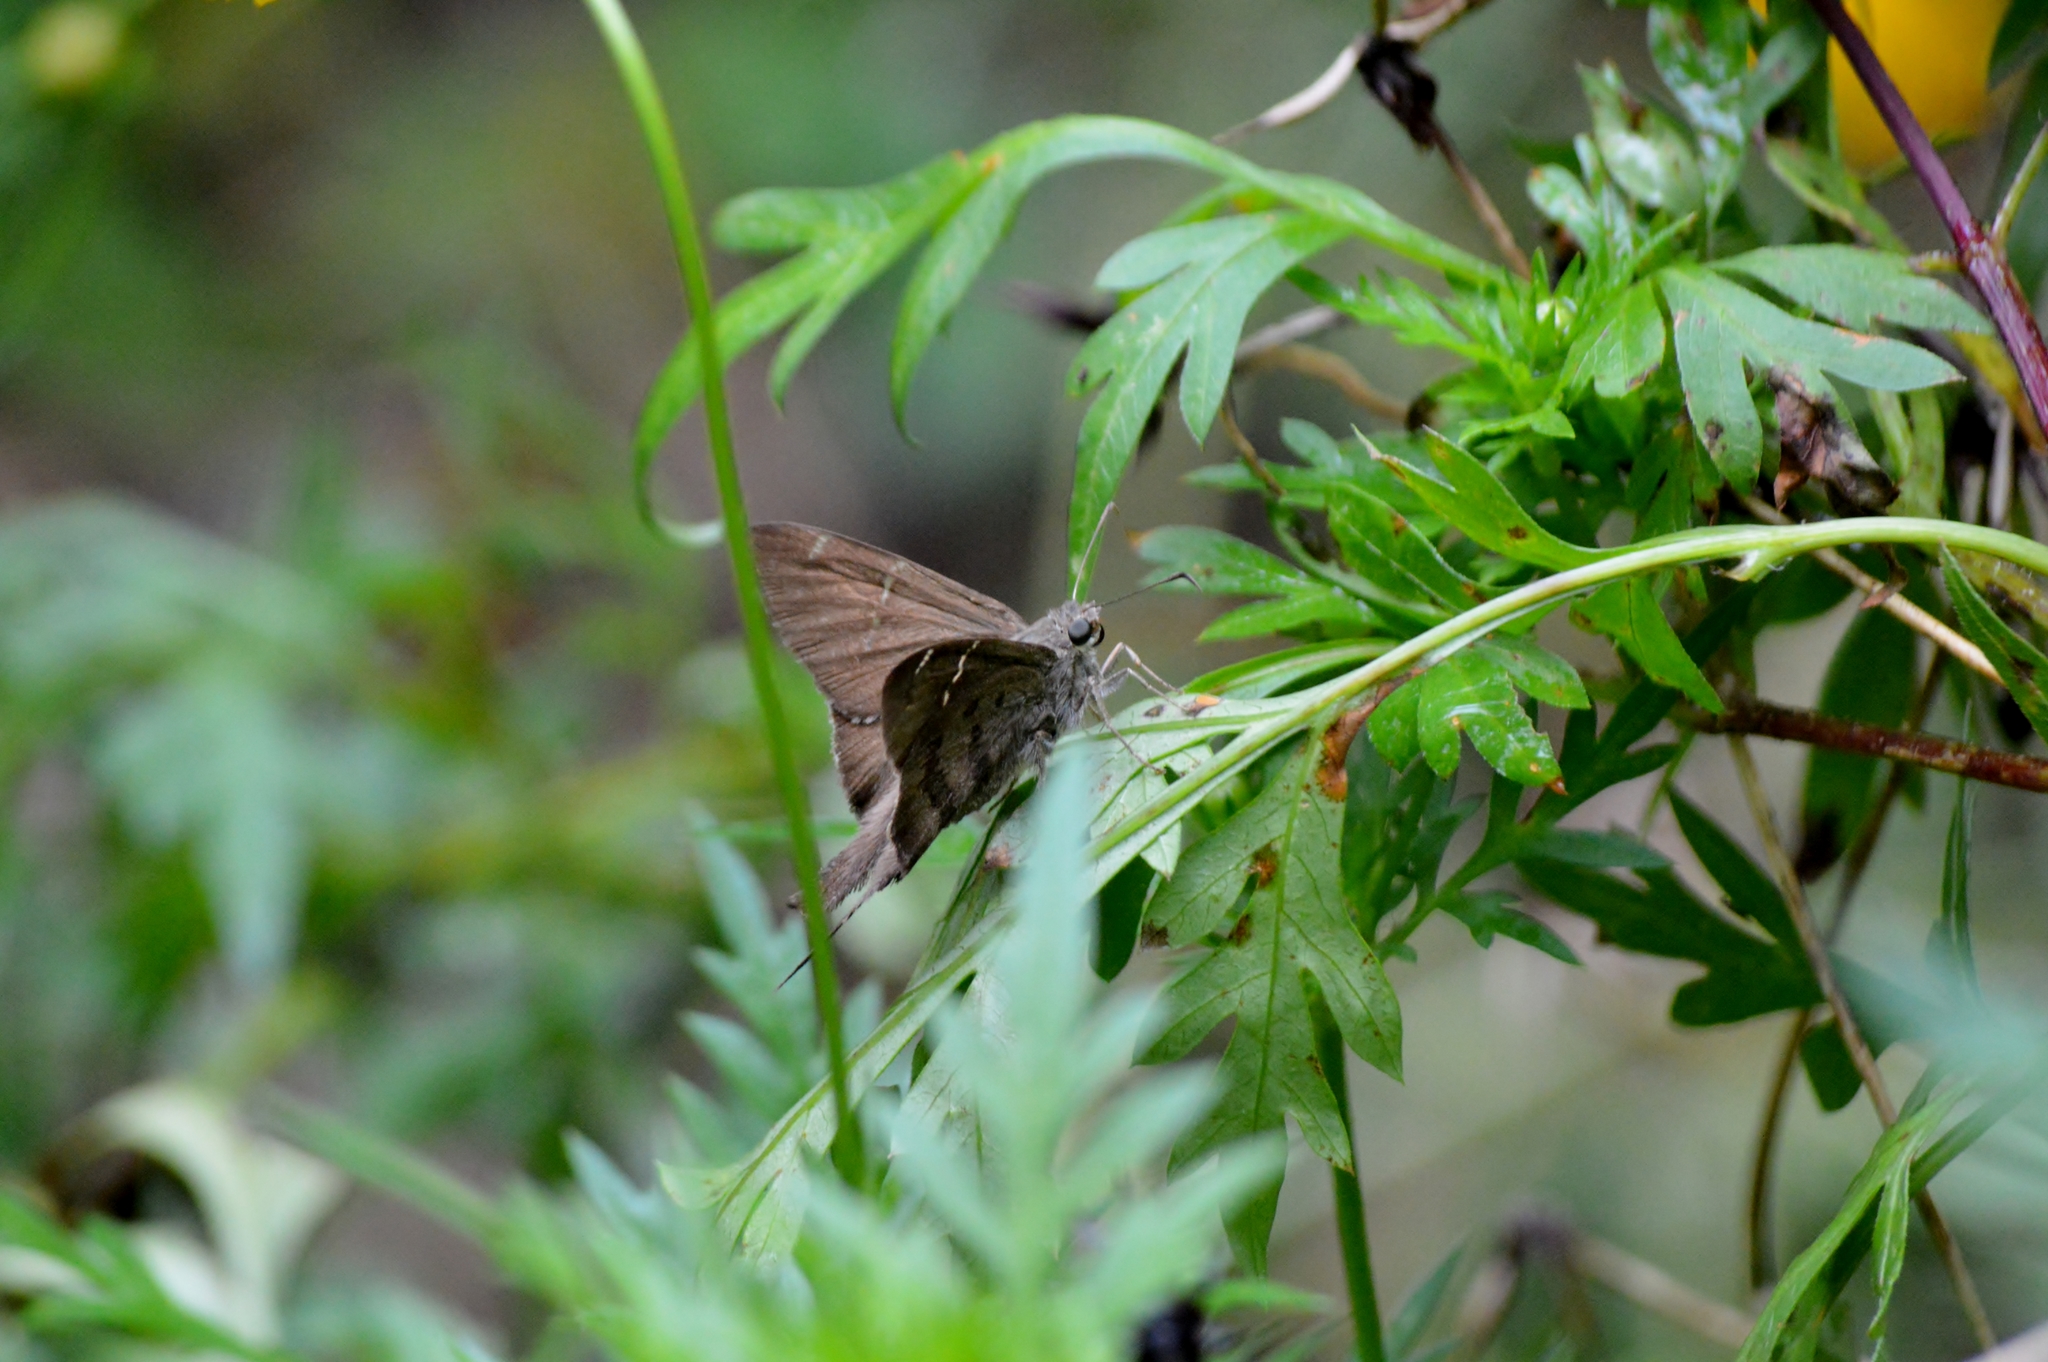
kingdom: Animalia
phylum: Arthropoda
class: Insecta
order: Lepidoptera
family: Hesperiidae
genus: Urbanus
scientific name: Urbanus teleus
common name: Teleus longtail
